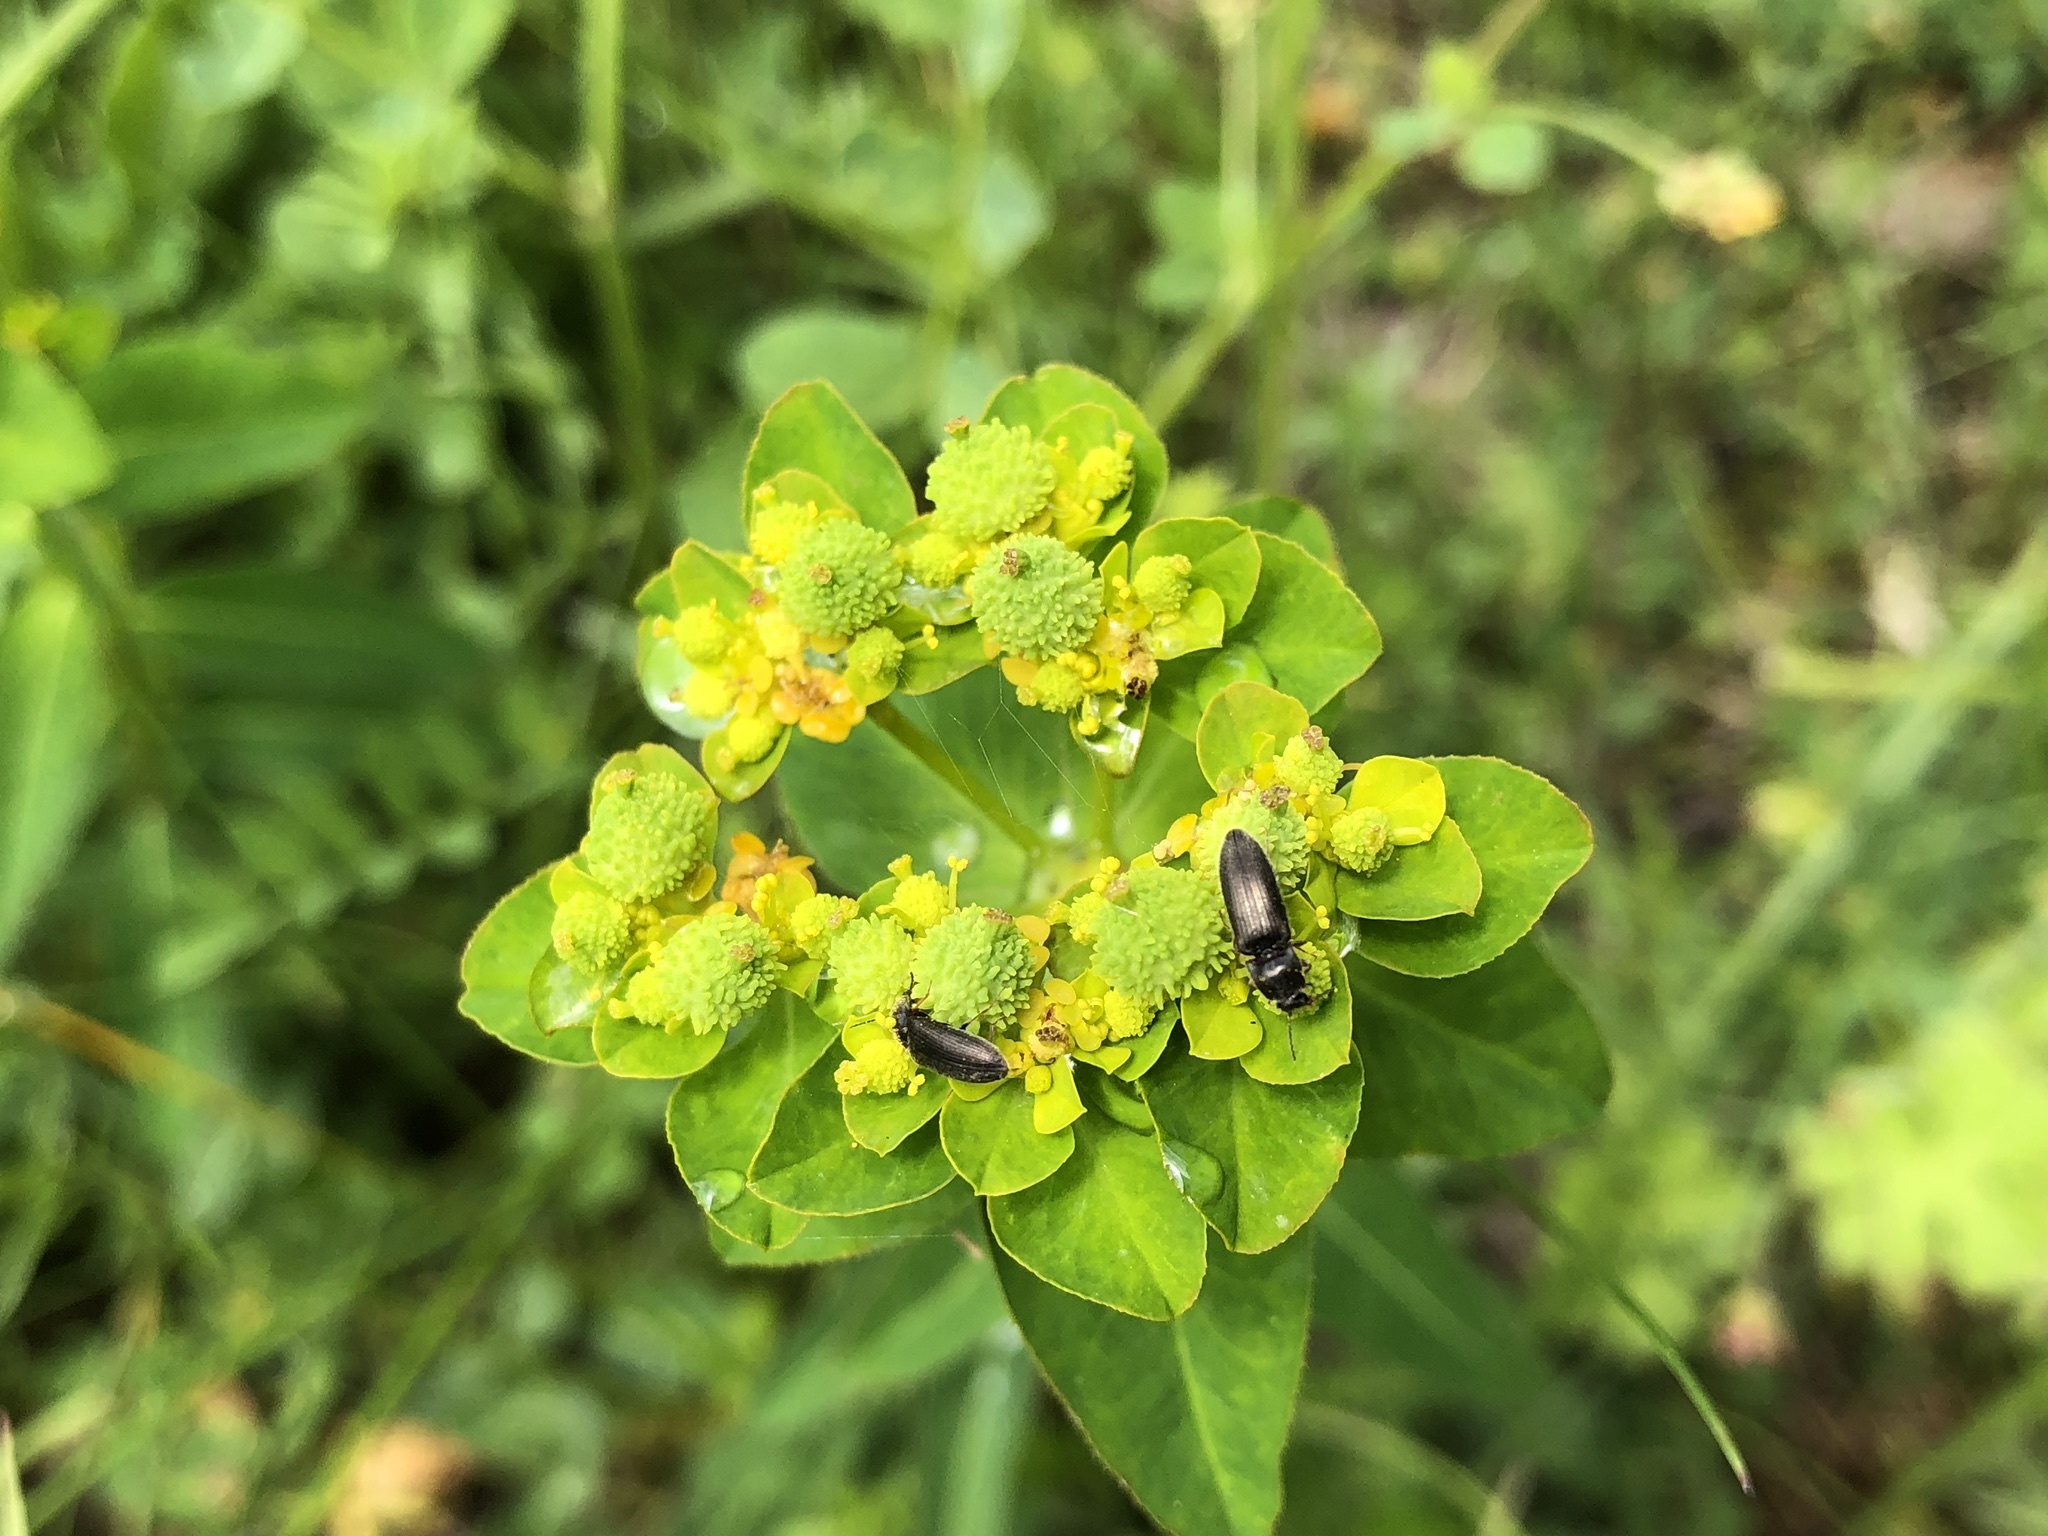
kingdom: Plantae
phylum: Tracheophyta
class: Magnoliopsida
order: Malpighiales
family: Euphorbiaceae
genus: Euphorbia
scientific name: Euphorbia verrucosa
